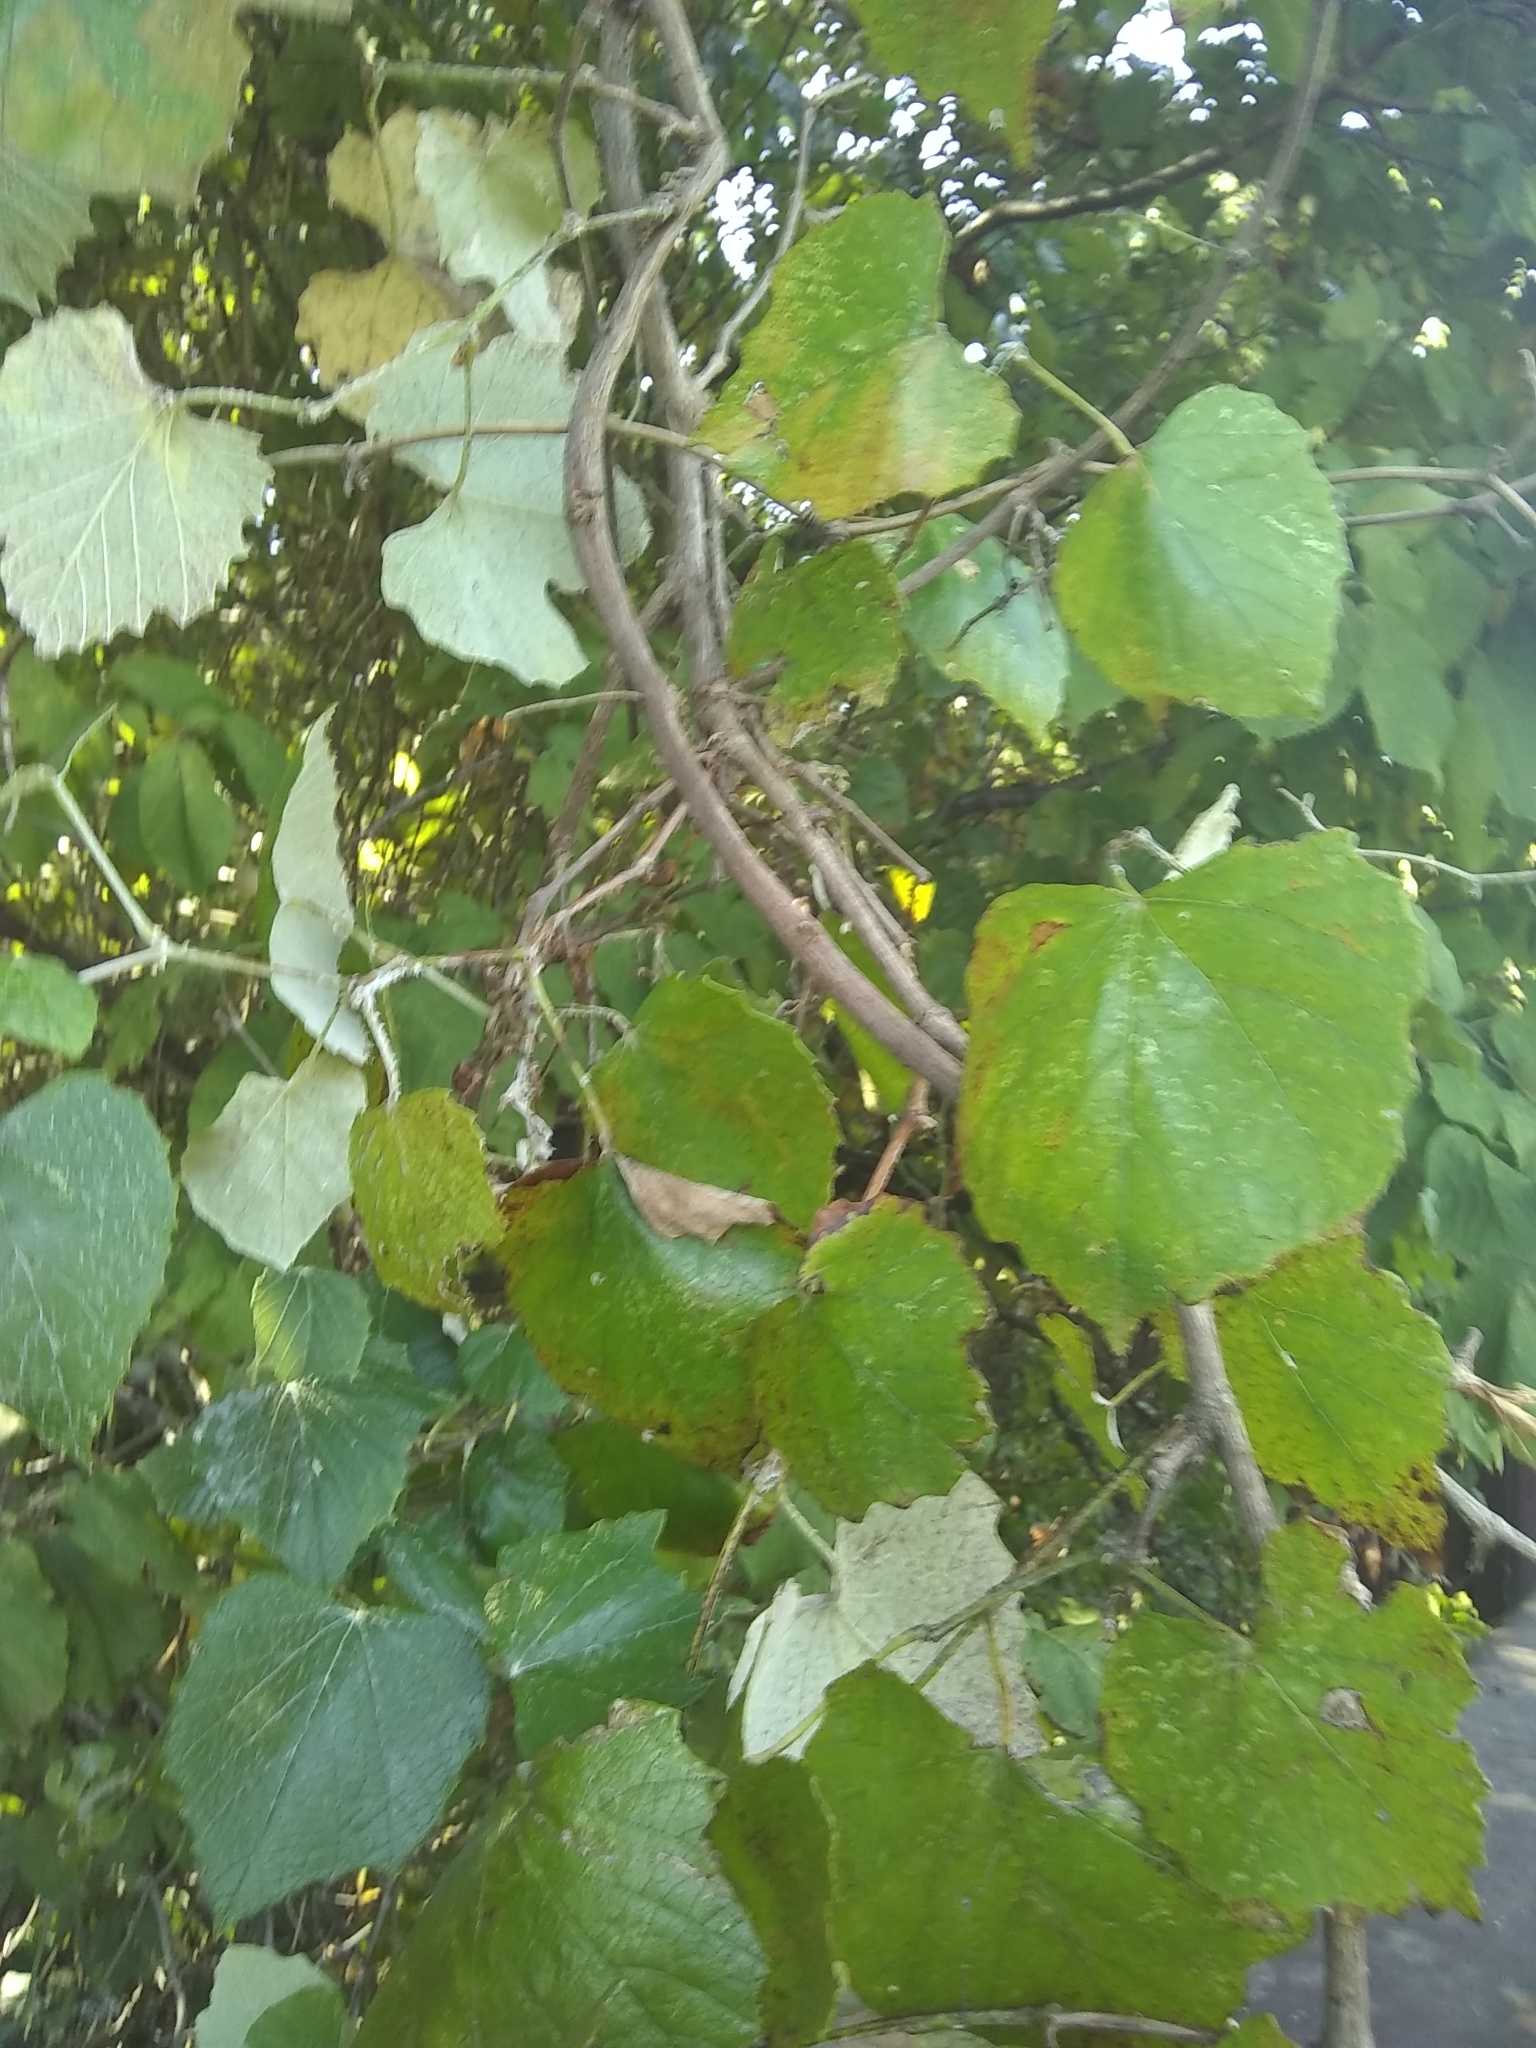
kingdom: Plantae
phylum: Tracheophyta
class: Magnoliopsida
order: Vitales
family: Vitaceae
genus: Vitis
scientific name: Vitis mustangensis
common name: Mustang grape
